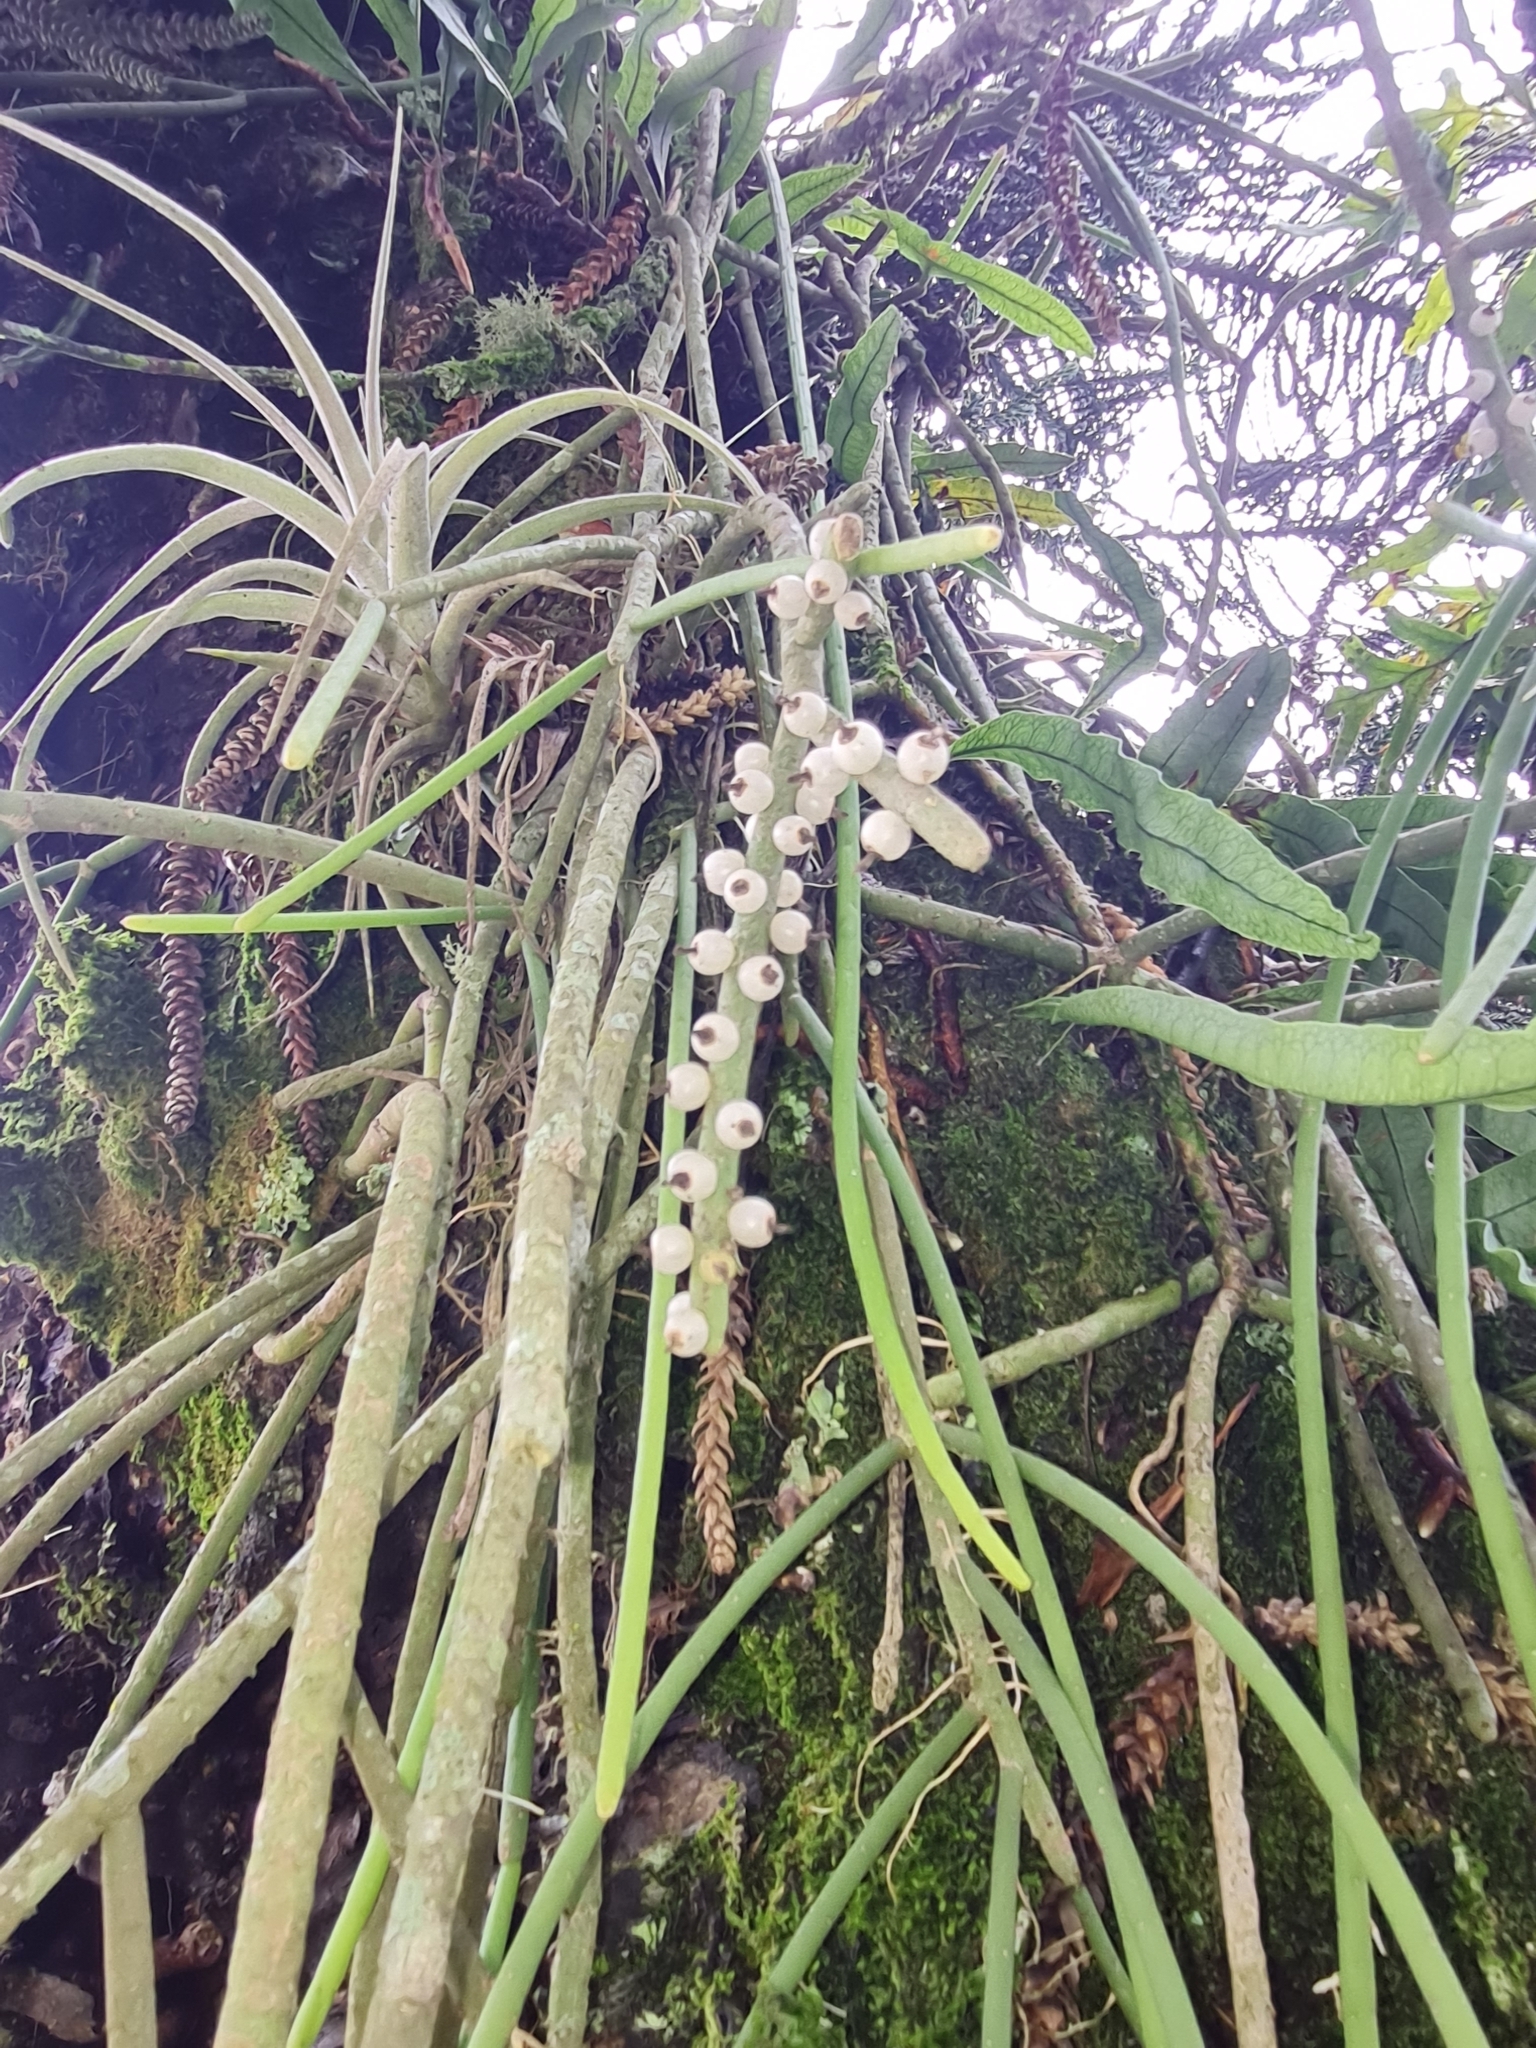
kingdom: Plantae
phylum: Tracheophyta
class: Magnoliopsida
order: Caryophyllales
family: Cactaceae
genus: Rhipsalis
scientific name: Rhipsalis baccifera
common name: Mistletoe cactus
